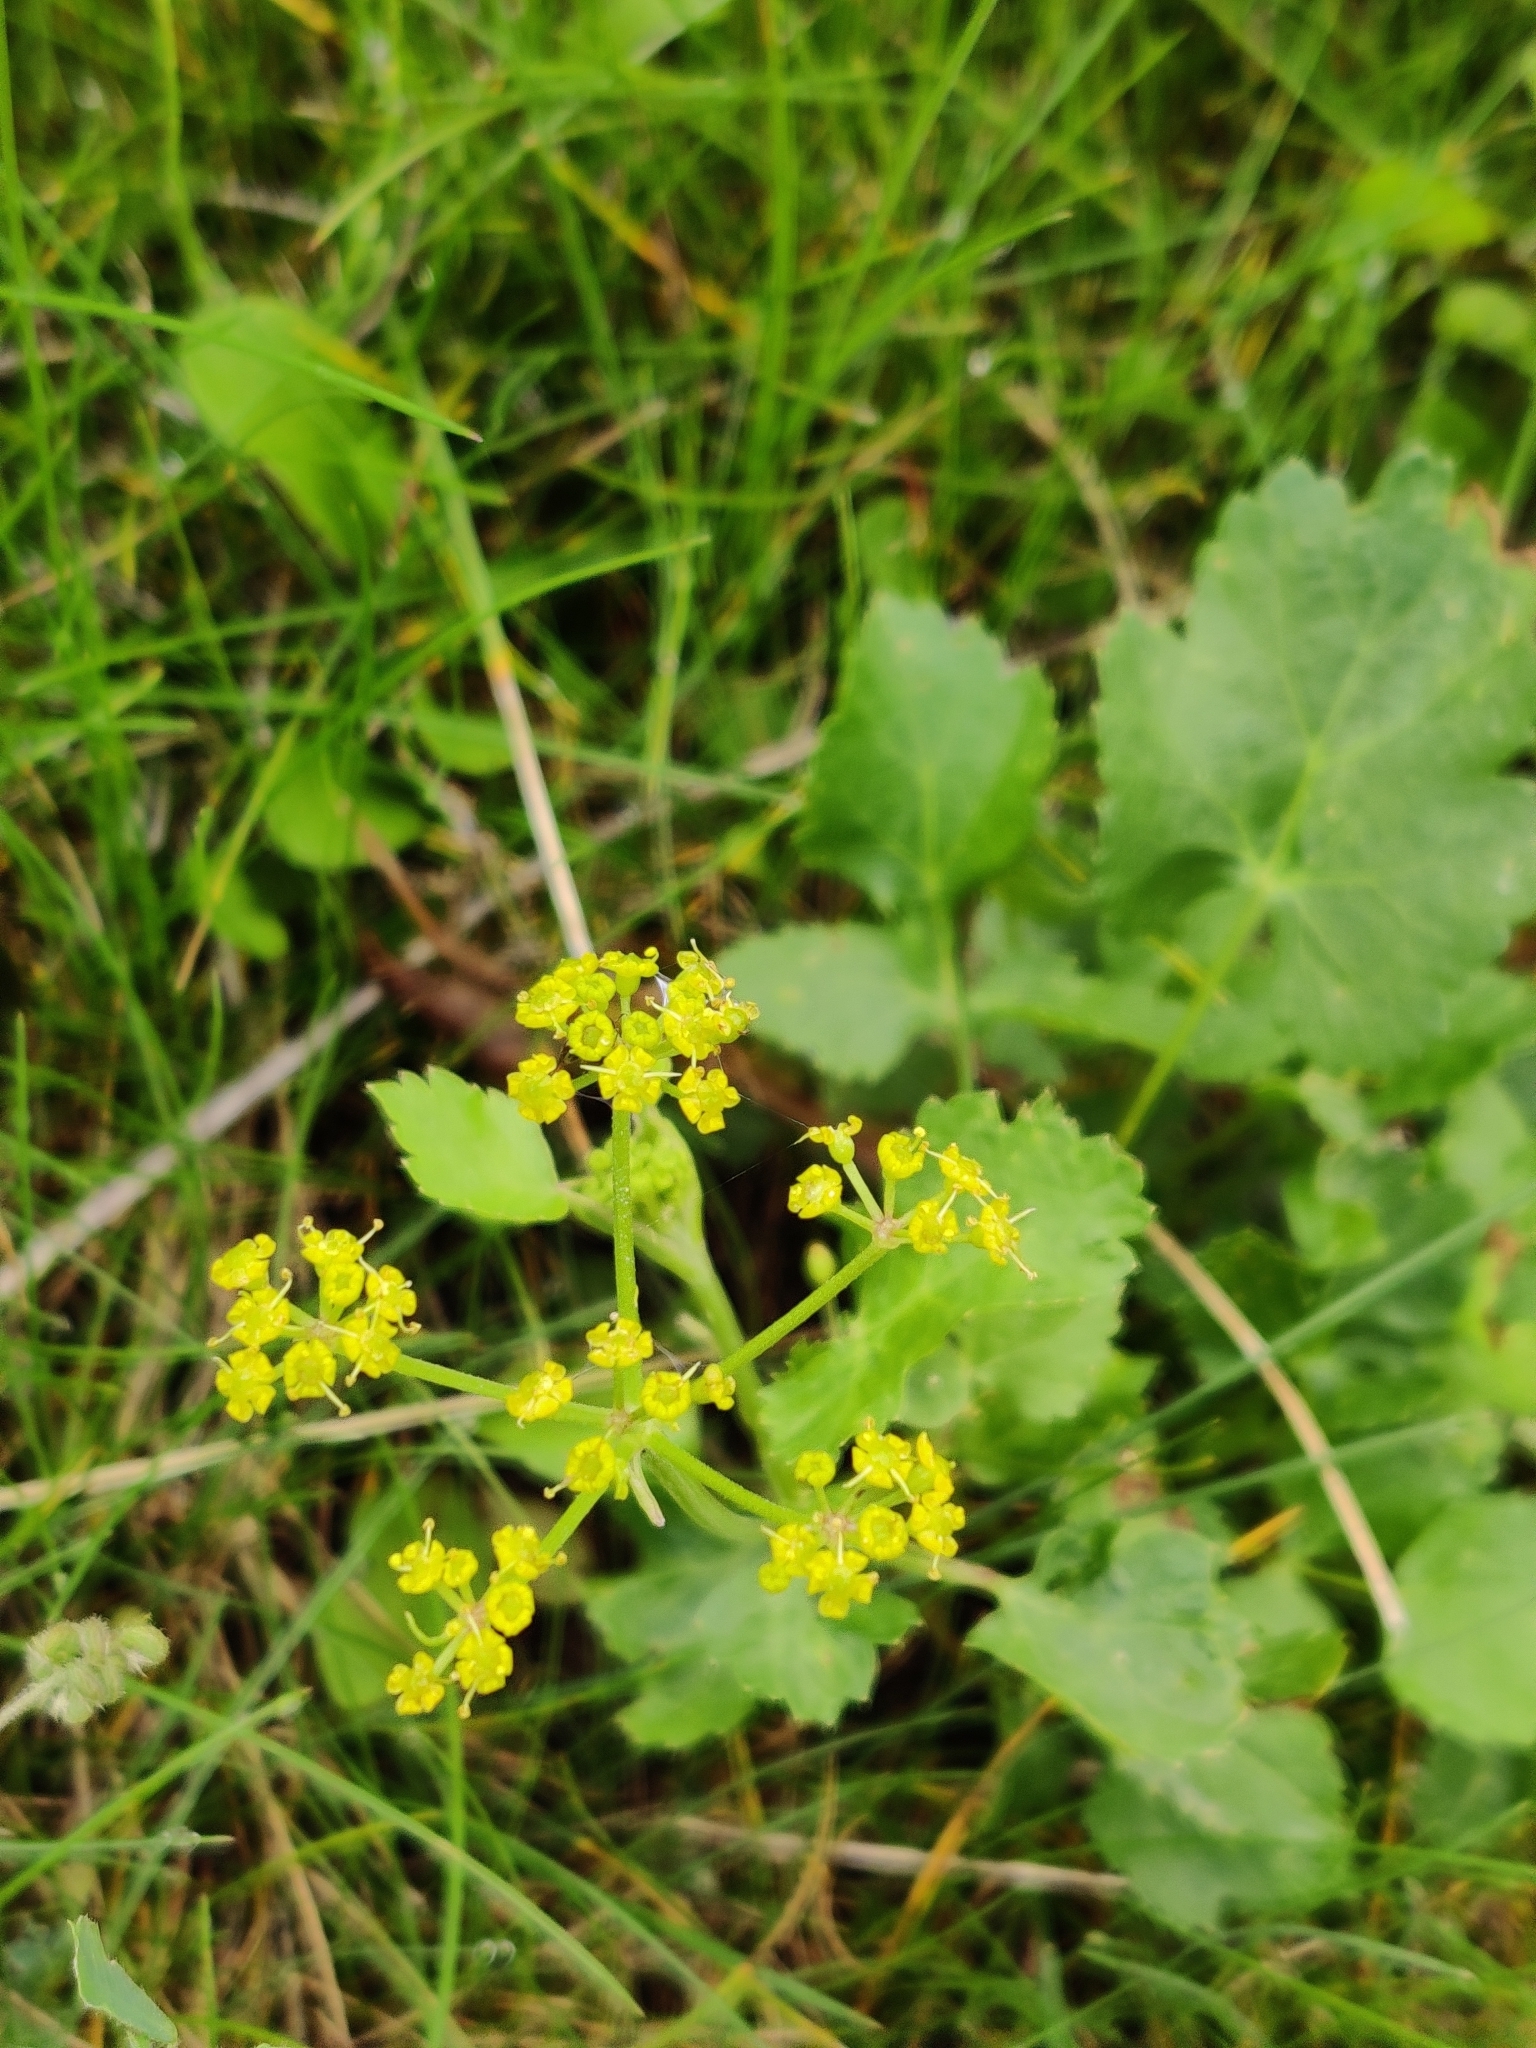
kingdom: Plantae
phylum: Tracheophyta
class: Magnoliopsida
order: Apiales
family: Apiaceae
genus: Pastinaca
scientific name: Pastinaca sativa
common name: Wild parsnip
